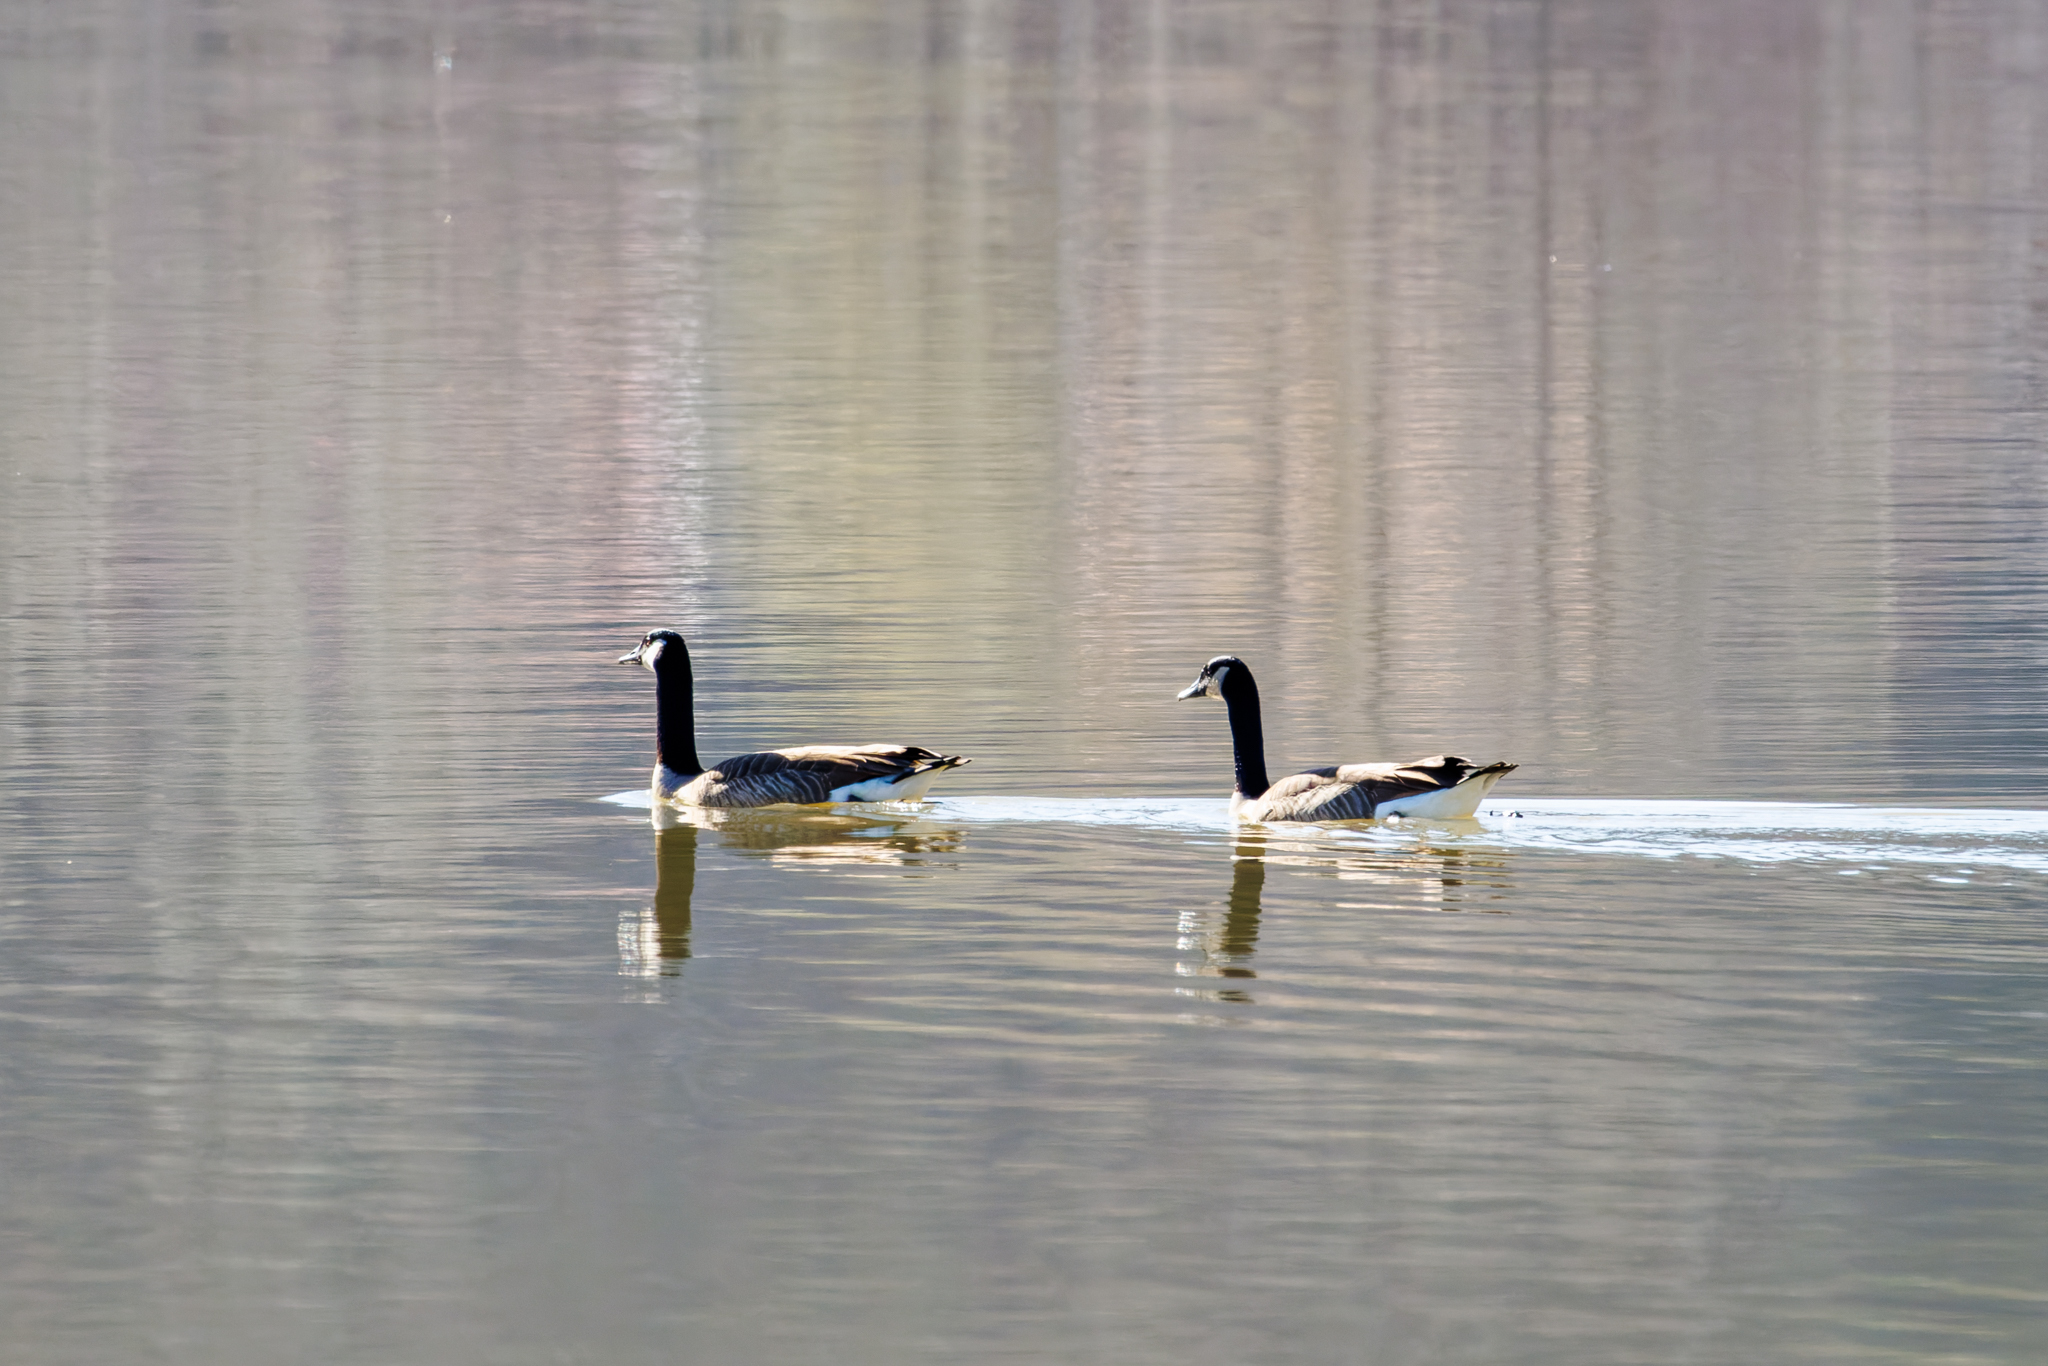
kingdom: Animalia
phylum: Chordata
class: Aves
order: Anseriformes
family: Anatidae
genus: Branta
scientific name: Branta canadensis
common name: Canada goose
